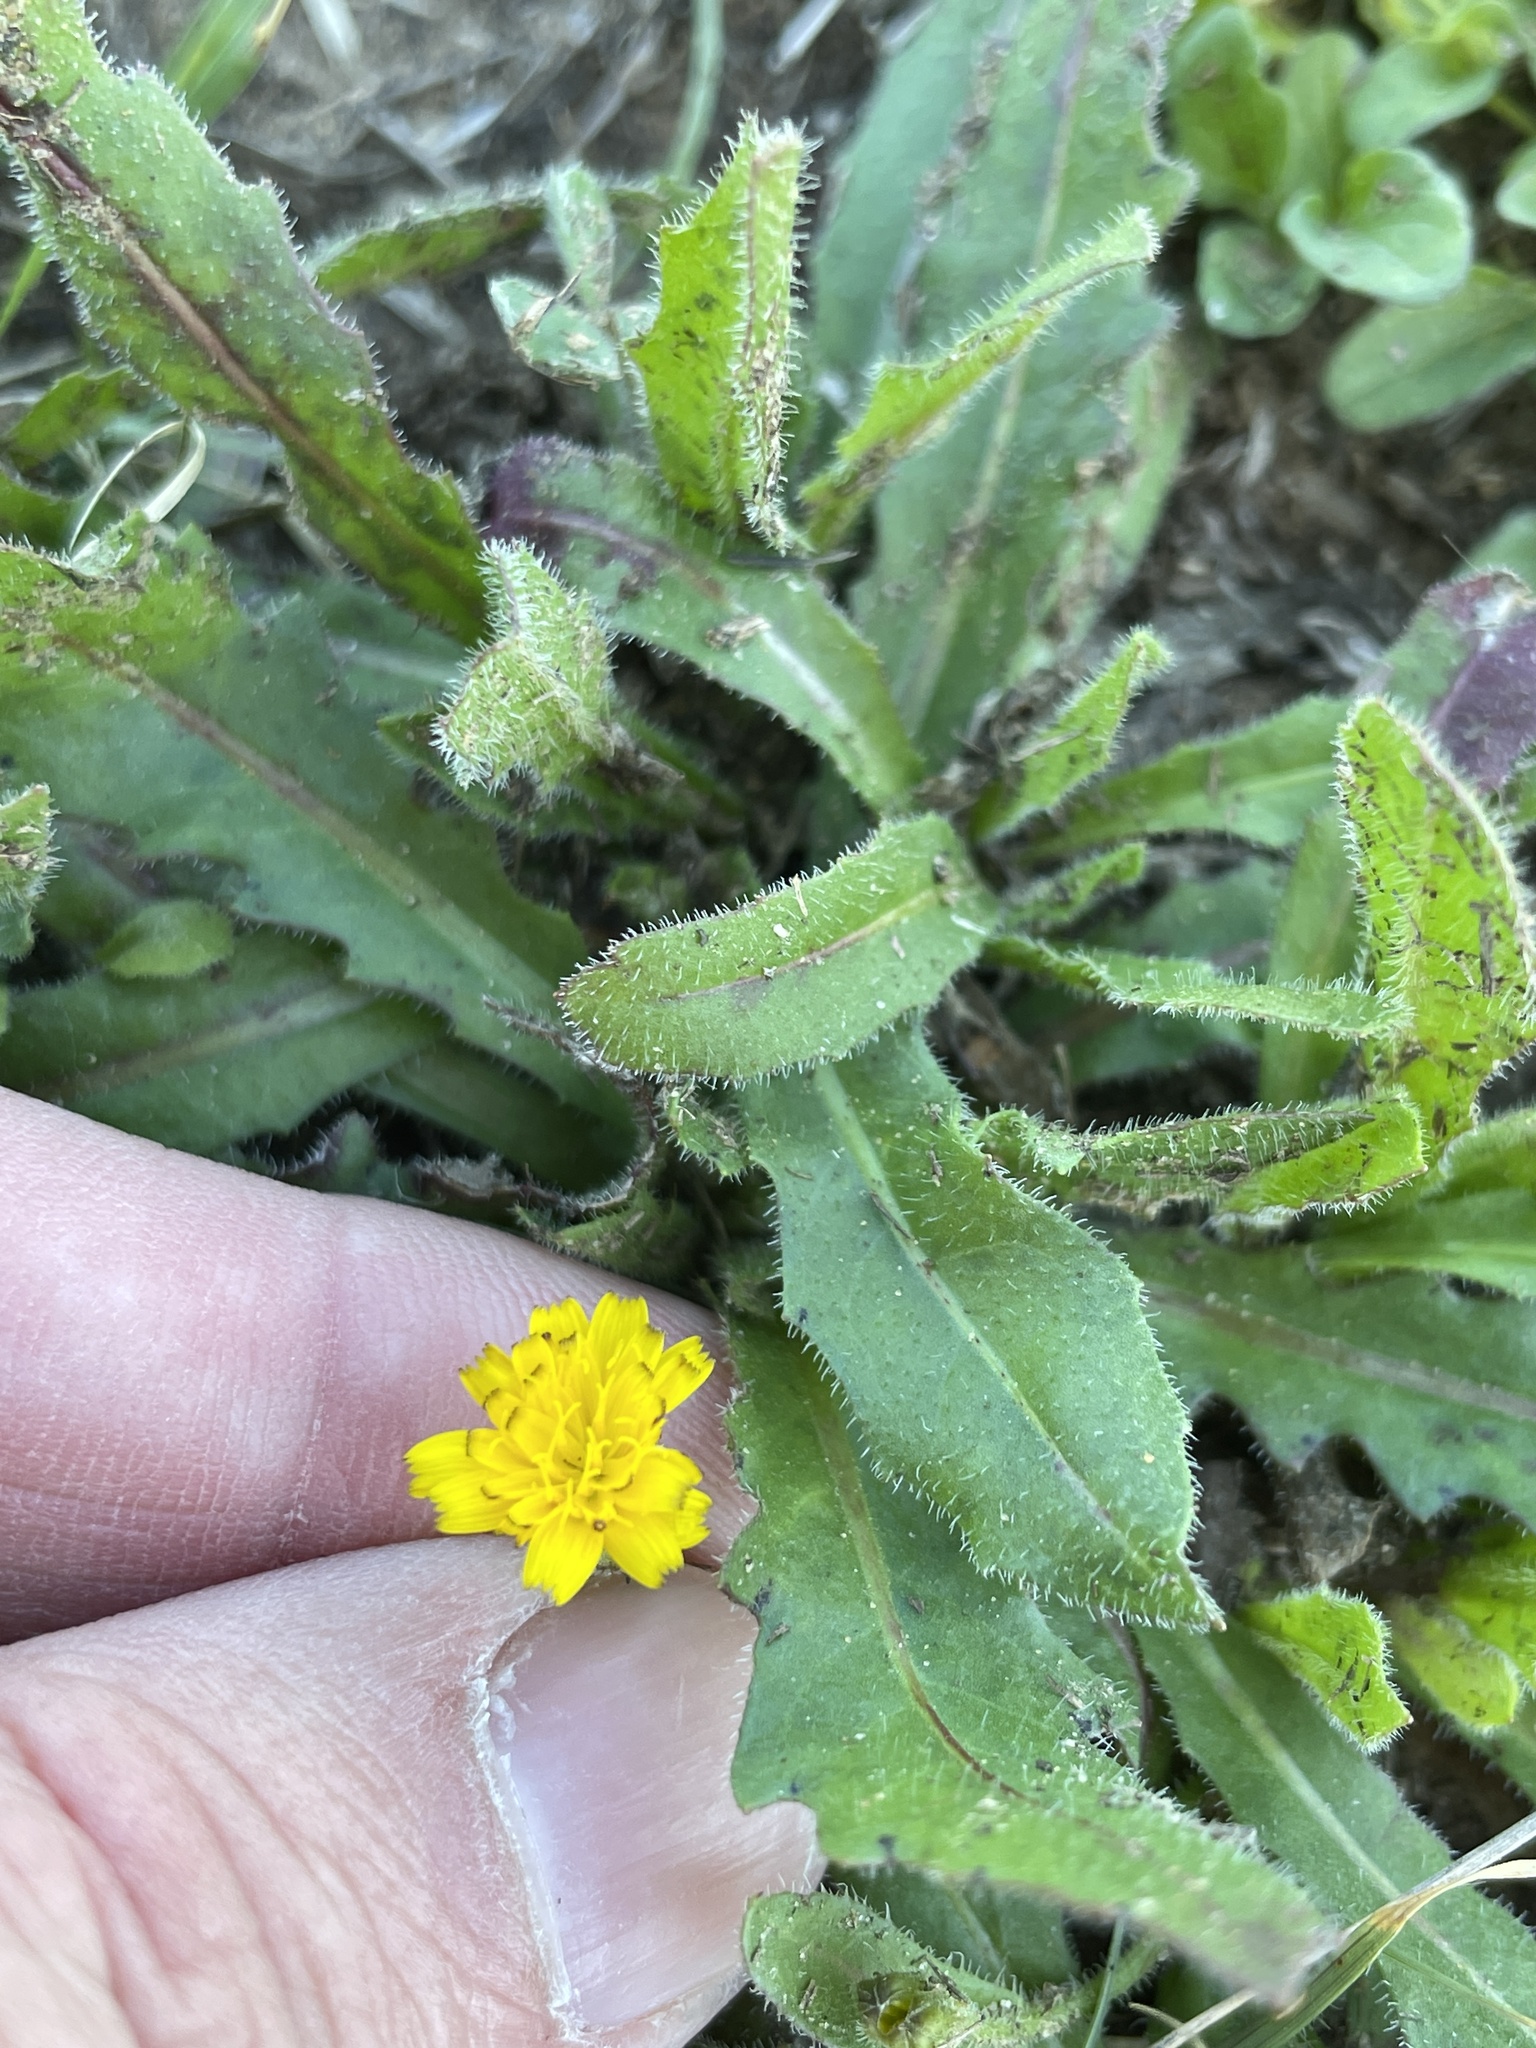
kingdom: Plantae
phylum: Tracheophyta
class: Magnoliopsida
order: Asterales
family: Asteraceae
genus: Hedypnois
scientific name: Hedypnois rhagadioloides
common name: Cretan weed
